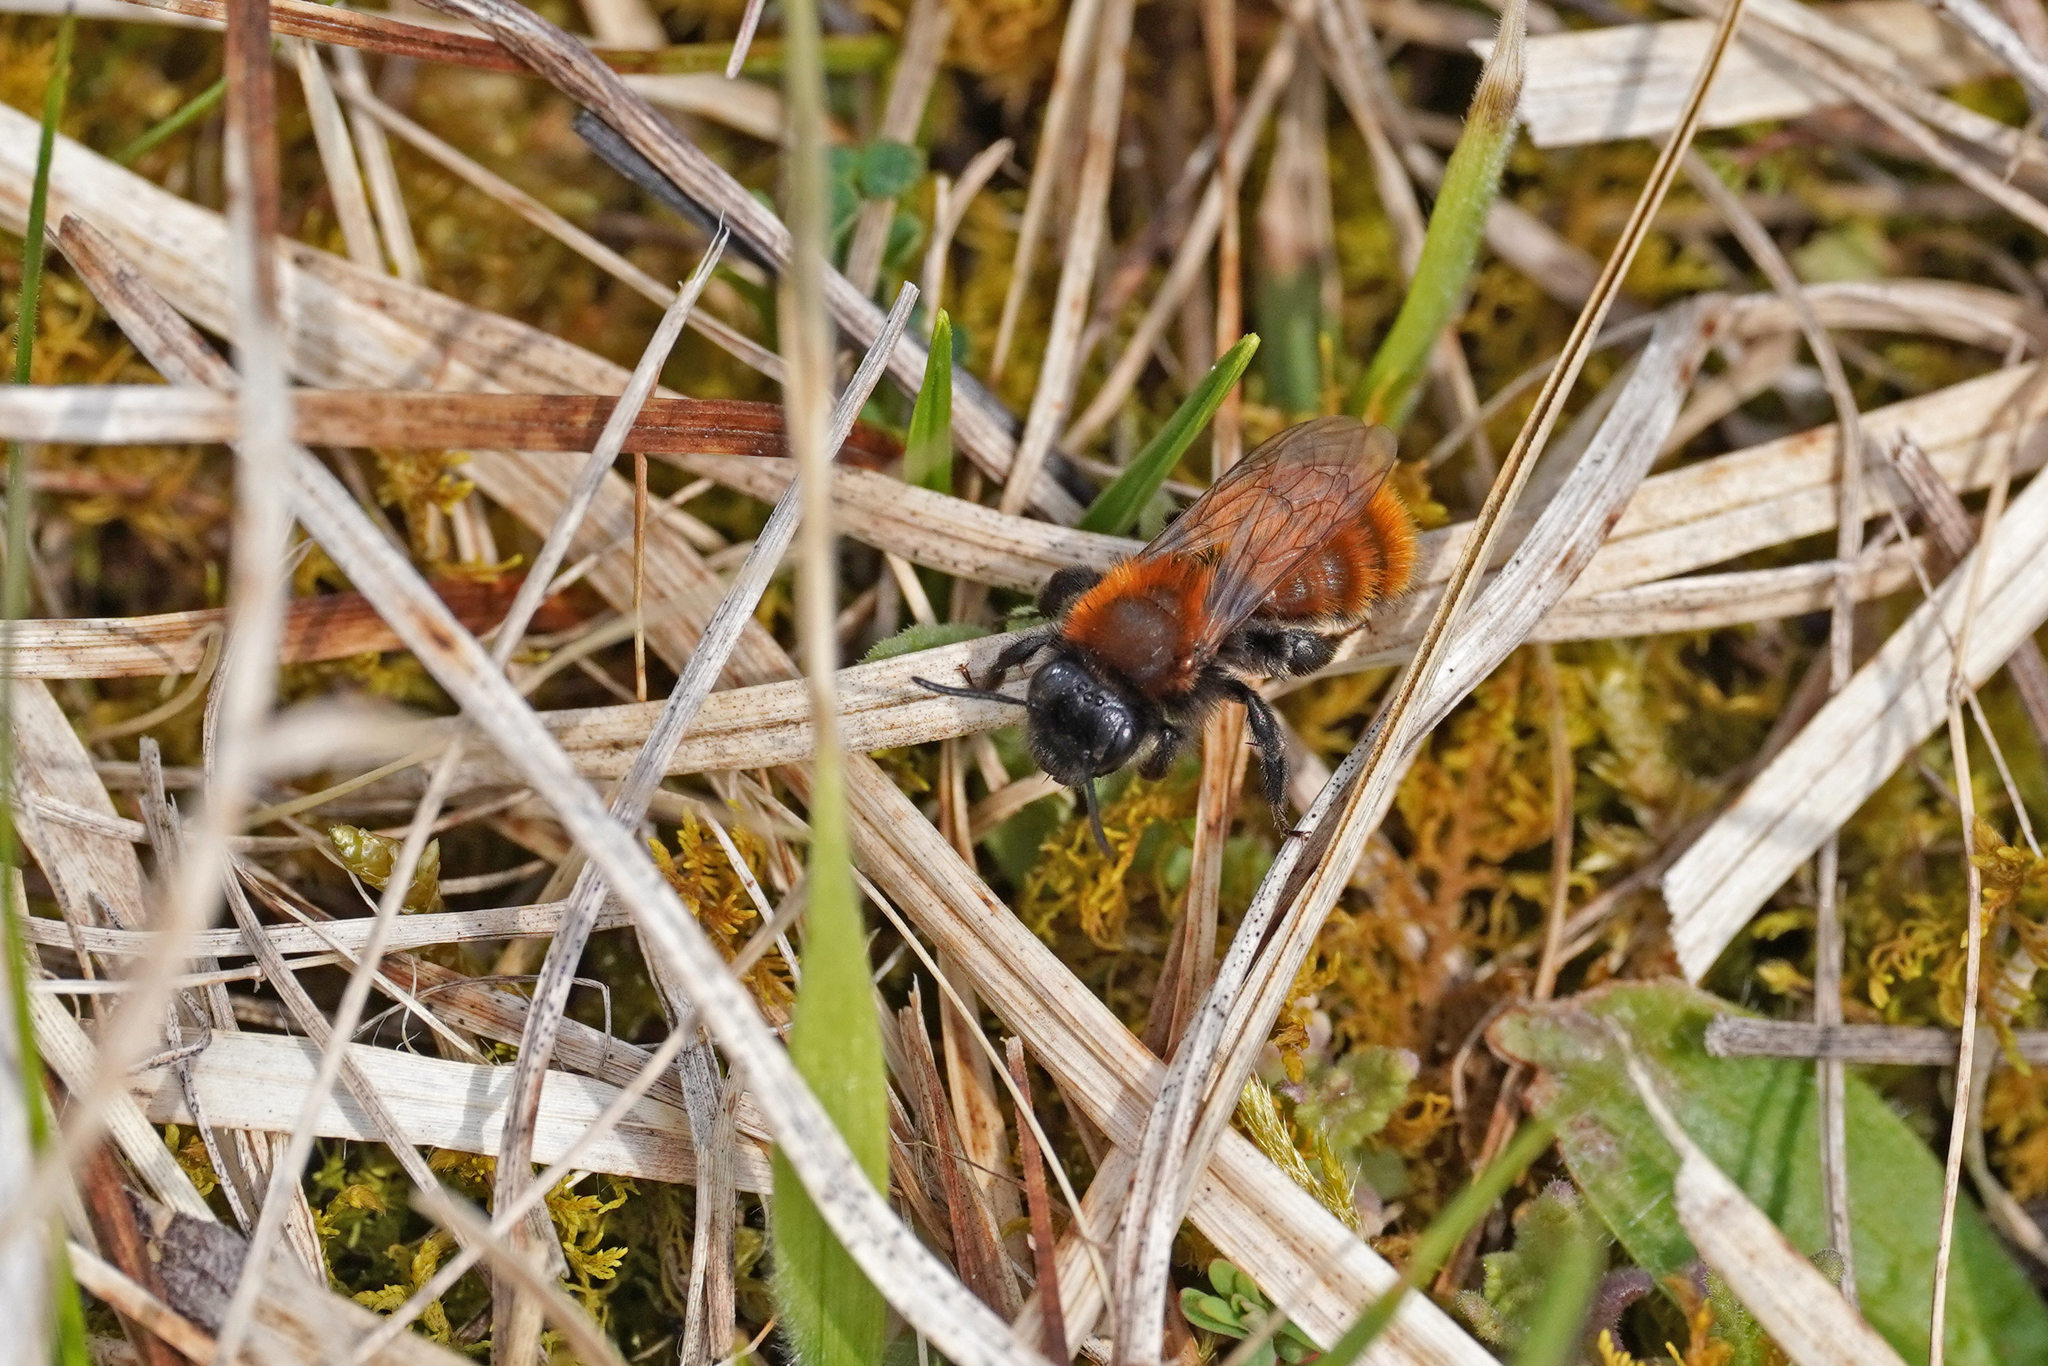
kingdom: Animalia
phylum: Arthropoda
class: Insecta
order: Hymenoptera
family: Andrenidae
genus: Andrena
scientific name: Andrena fulva
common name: Tawny mining bee
